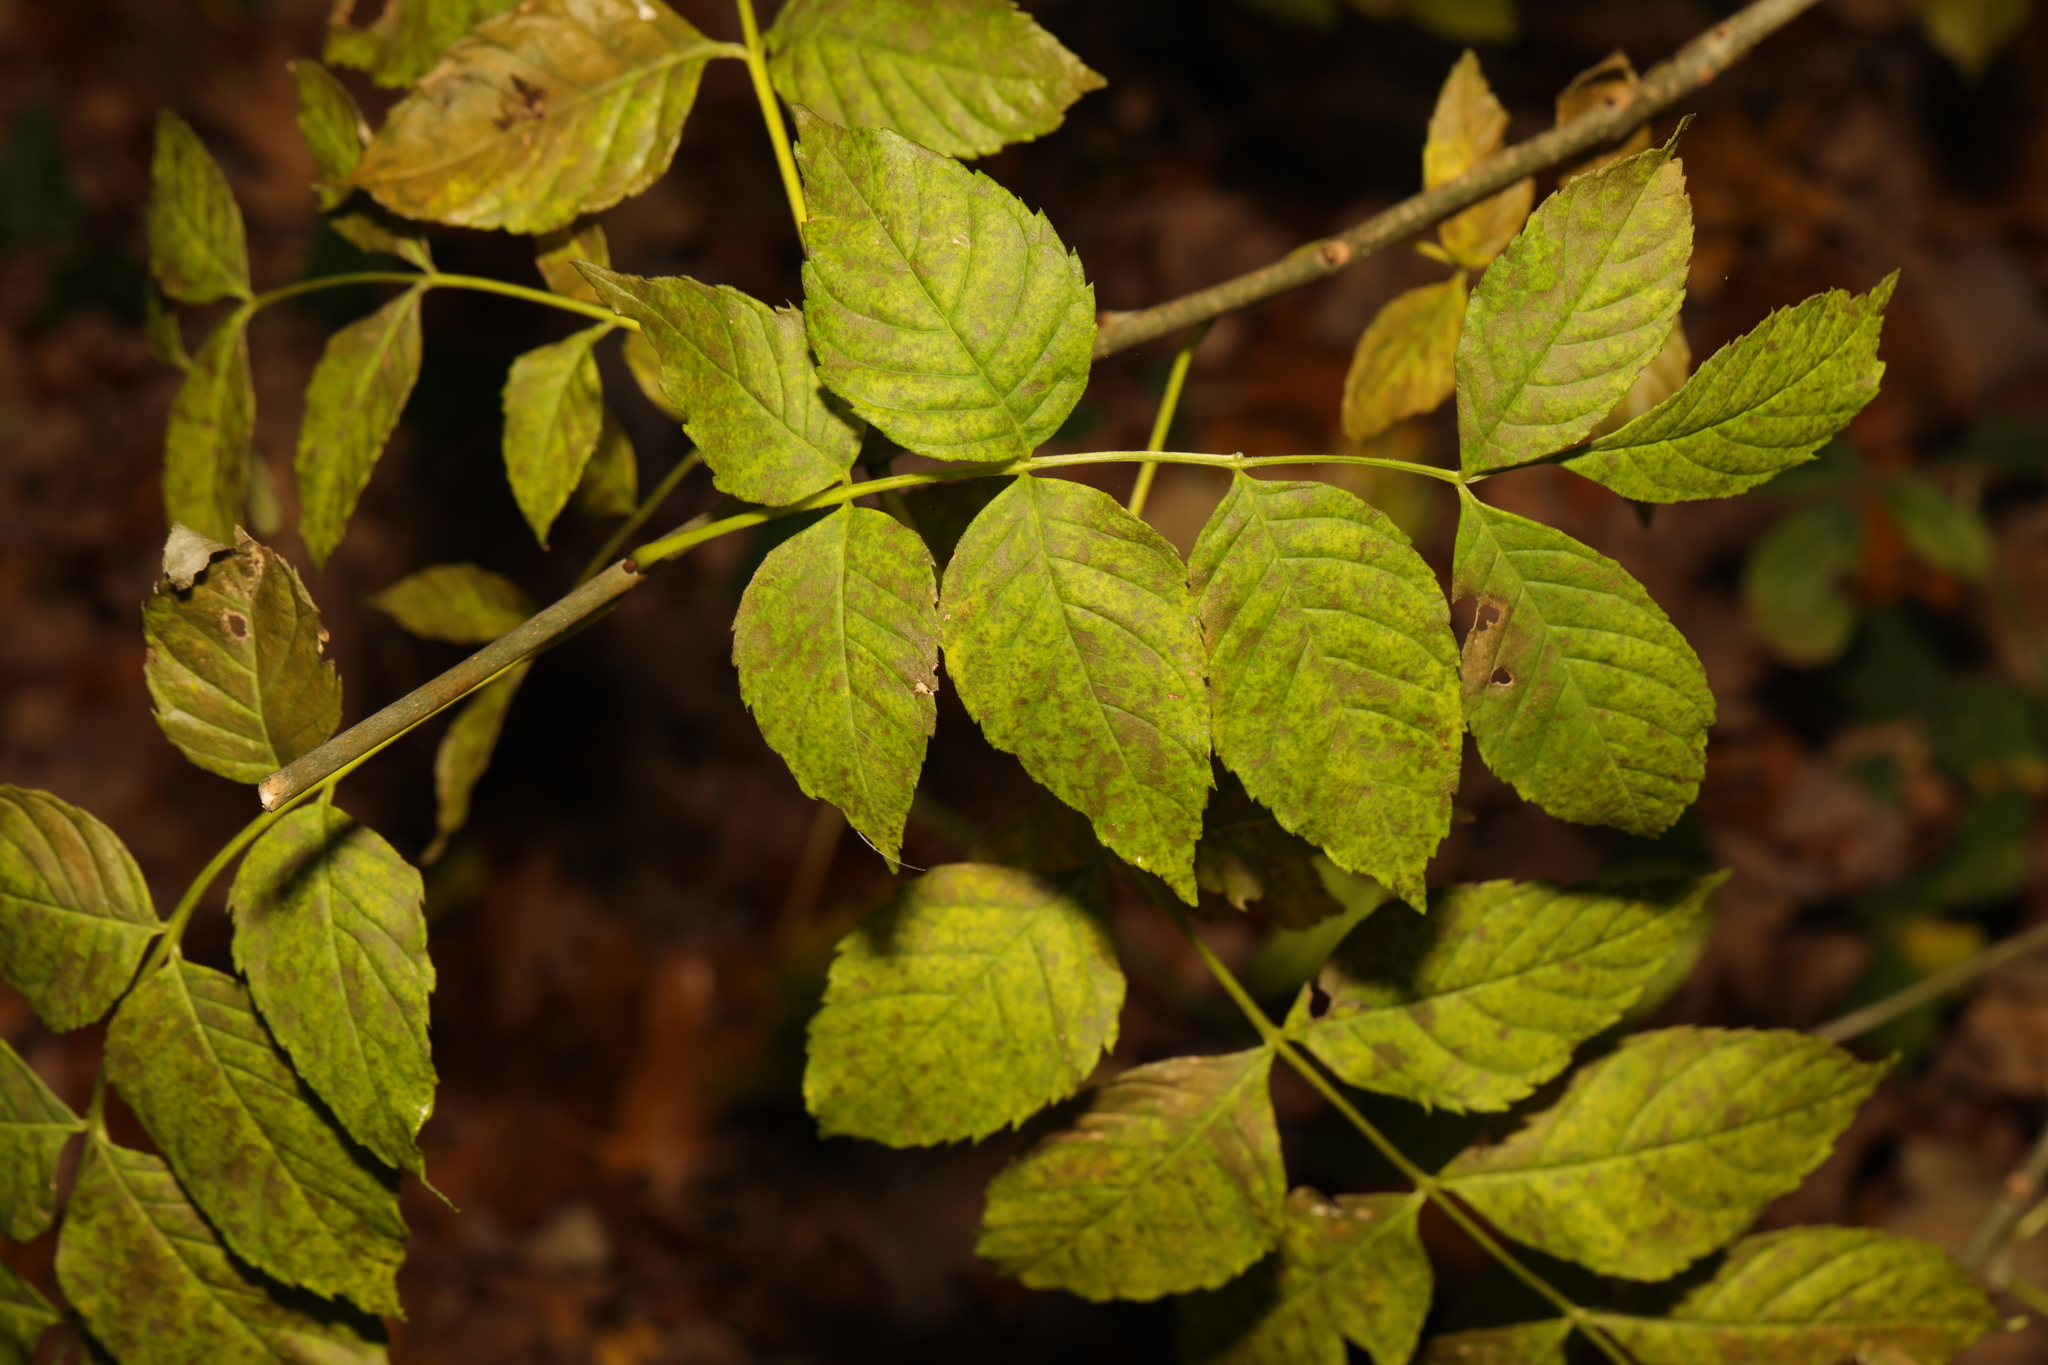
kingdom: Plantae
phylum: Tracheophyta
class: Magnoliopsida
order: Lamiales
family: Oleaceae
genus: Fraxinus
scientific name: Fraxinus excelsior
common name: European ash
